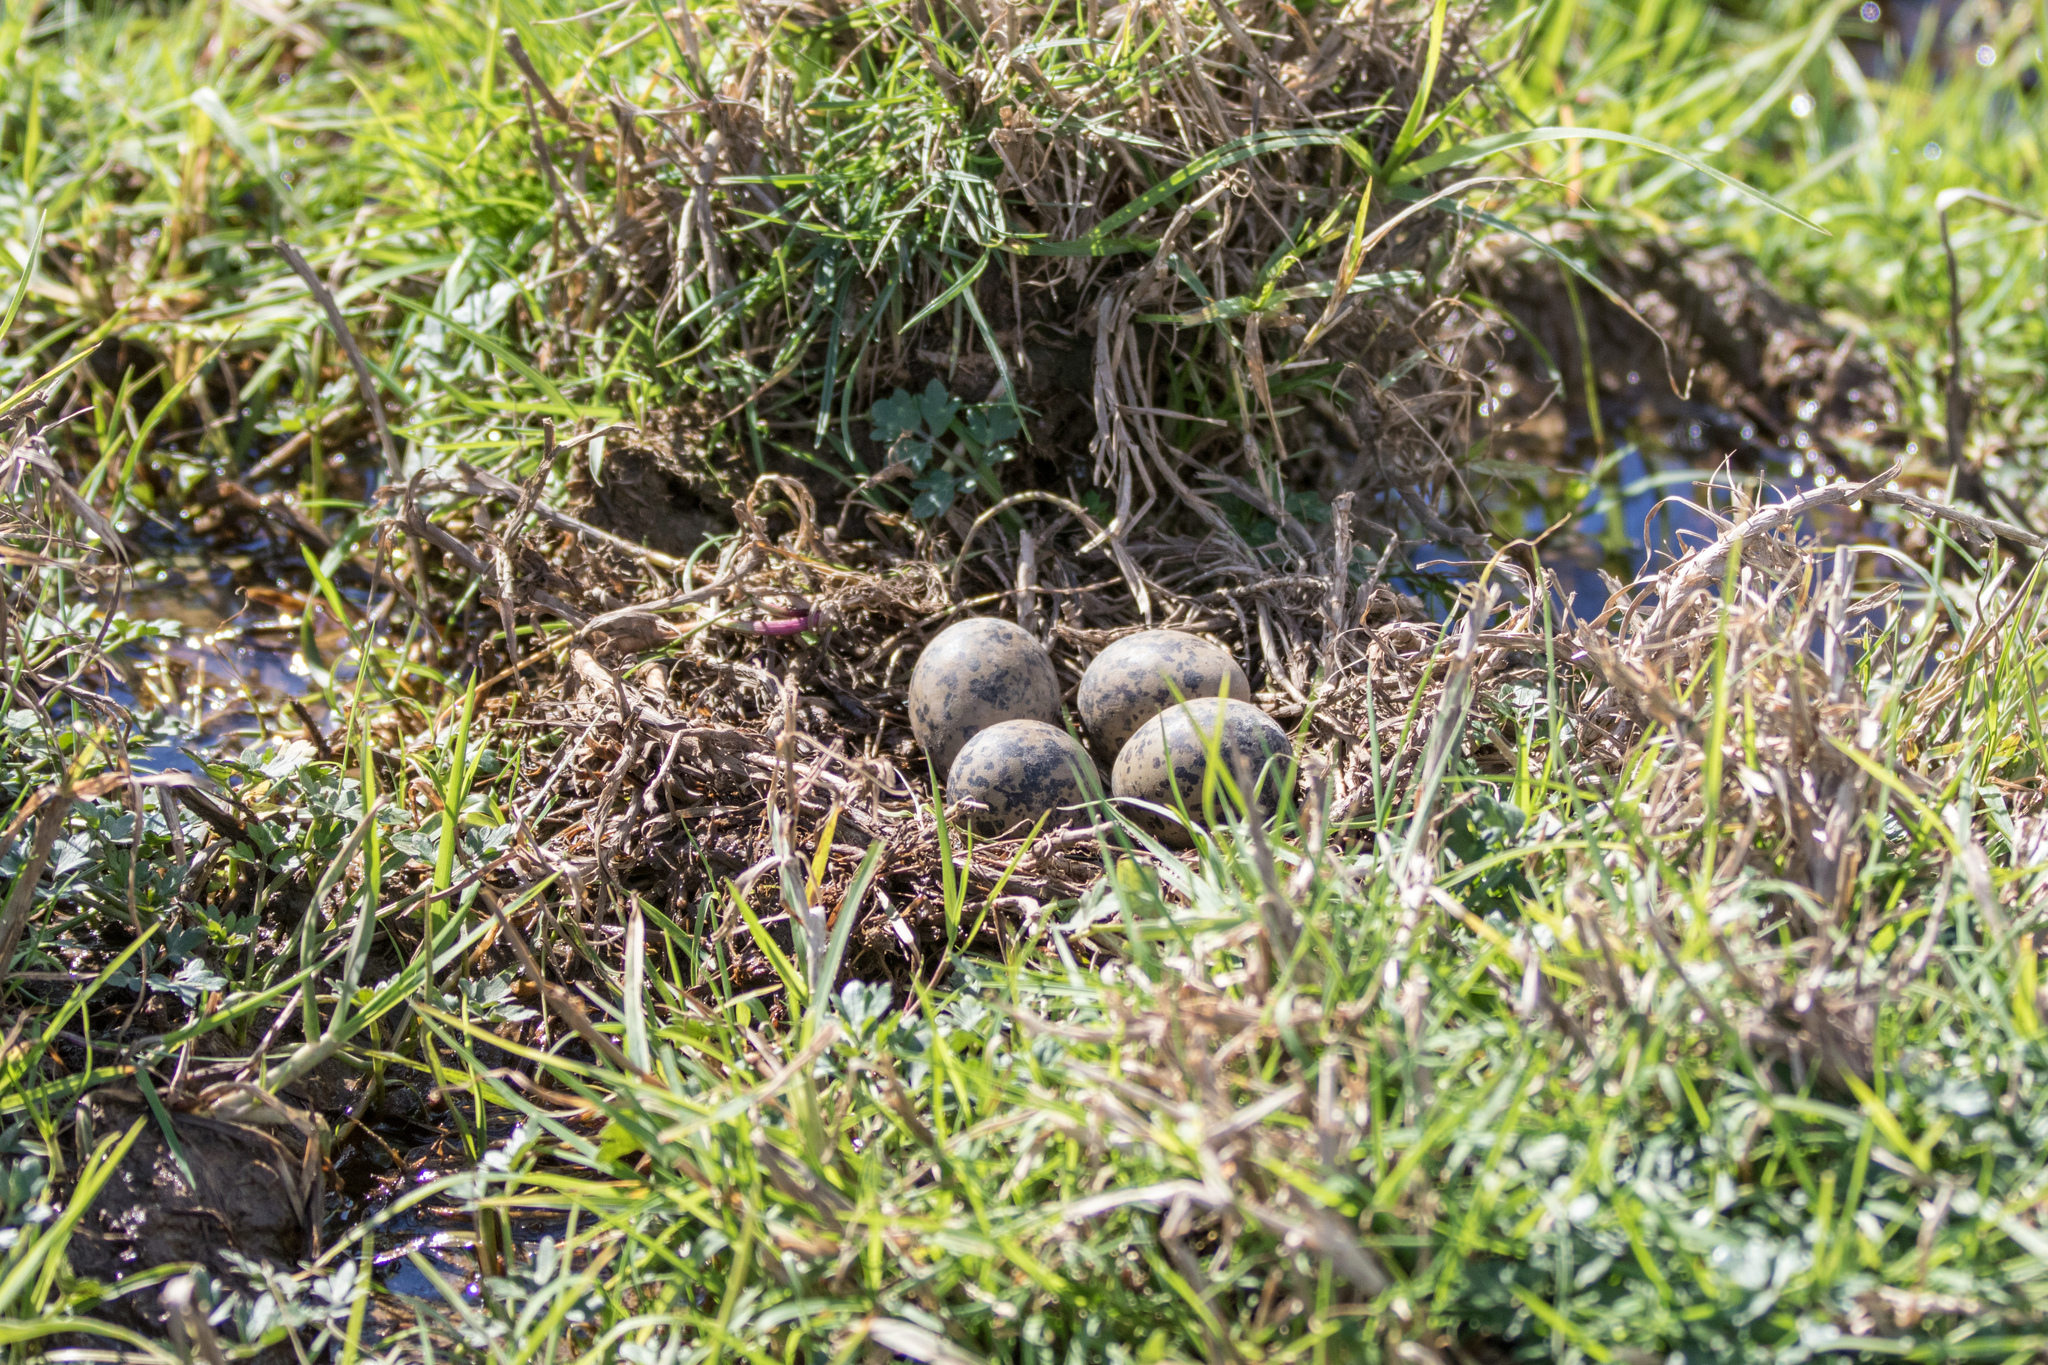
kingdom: Animalia
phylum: Chordata
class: Aves
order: Charadriiformes
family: Recurvirostridae
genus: Himantopus
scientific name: Himantopus leucocephalus
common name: White-headed stilt
